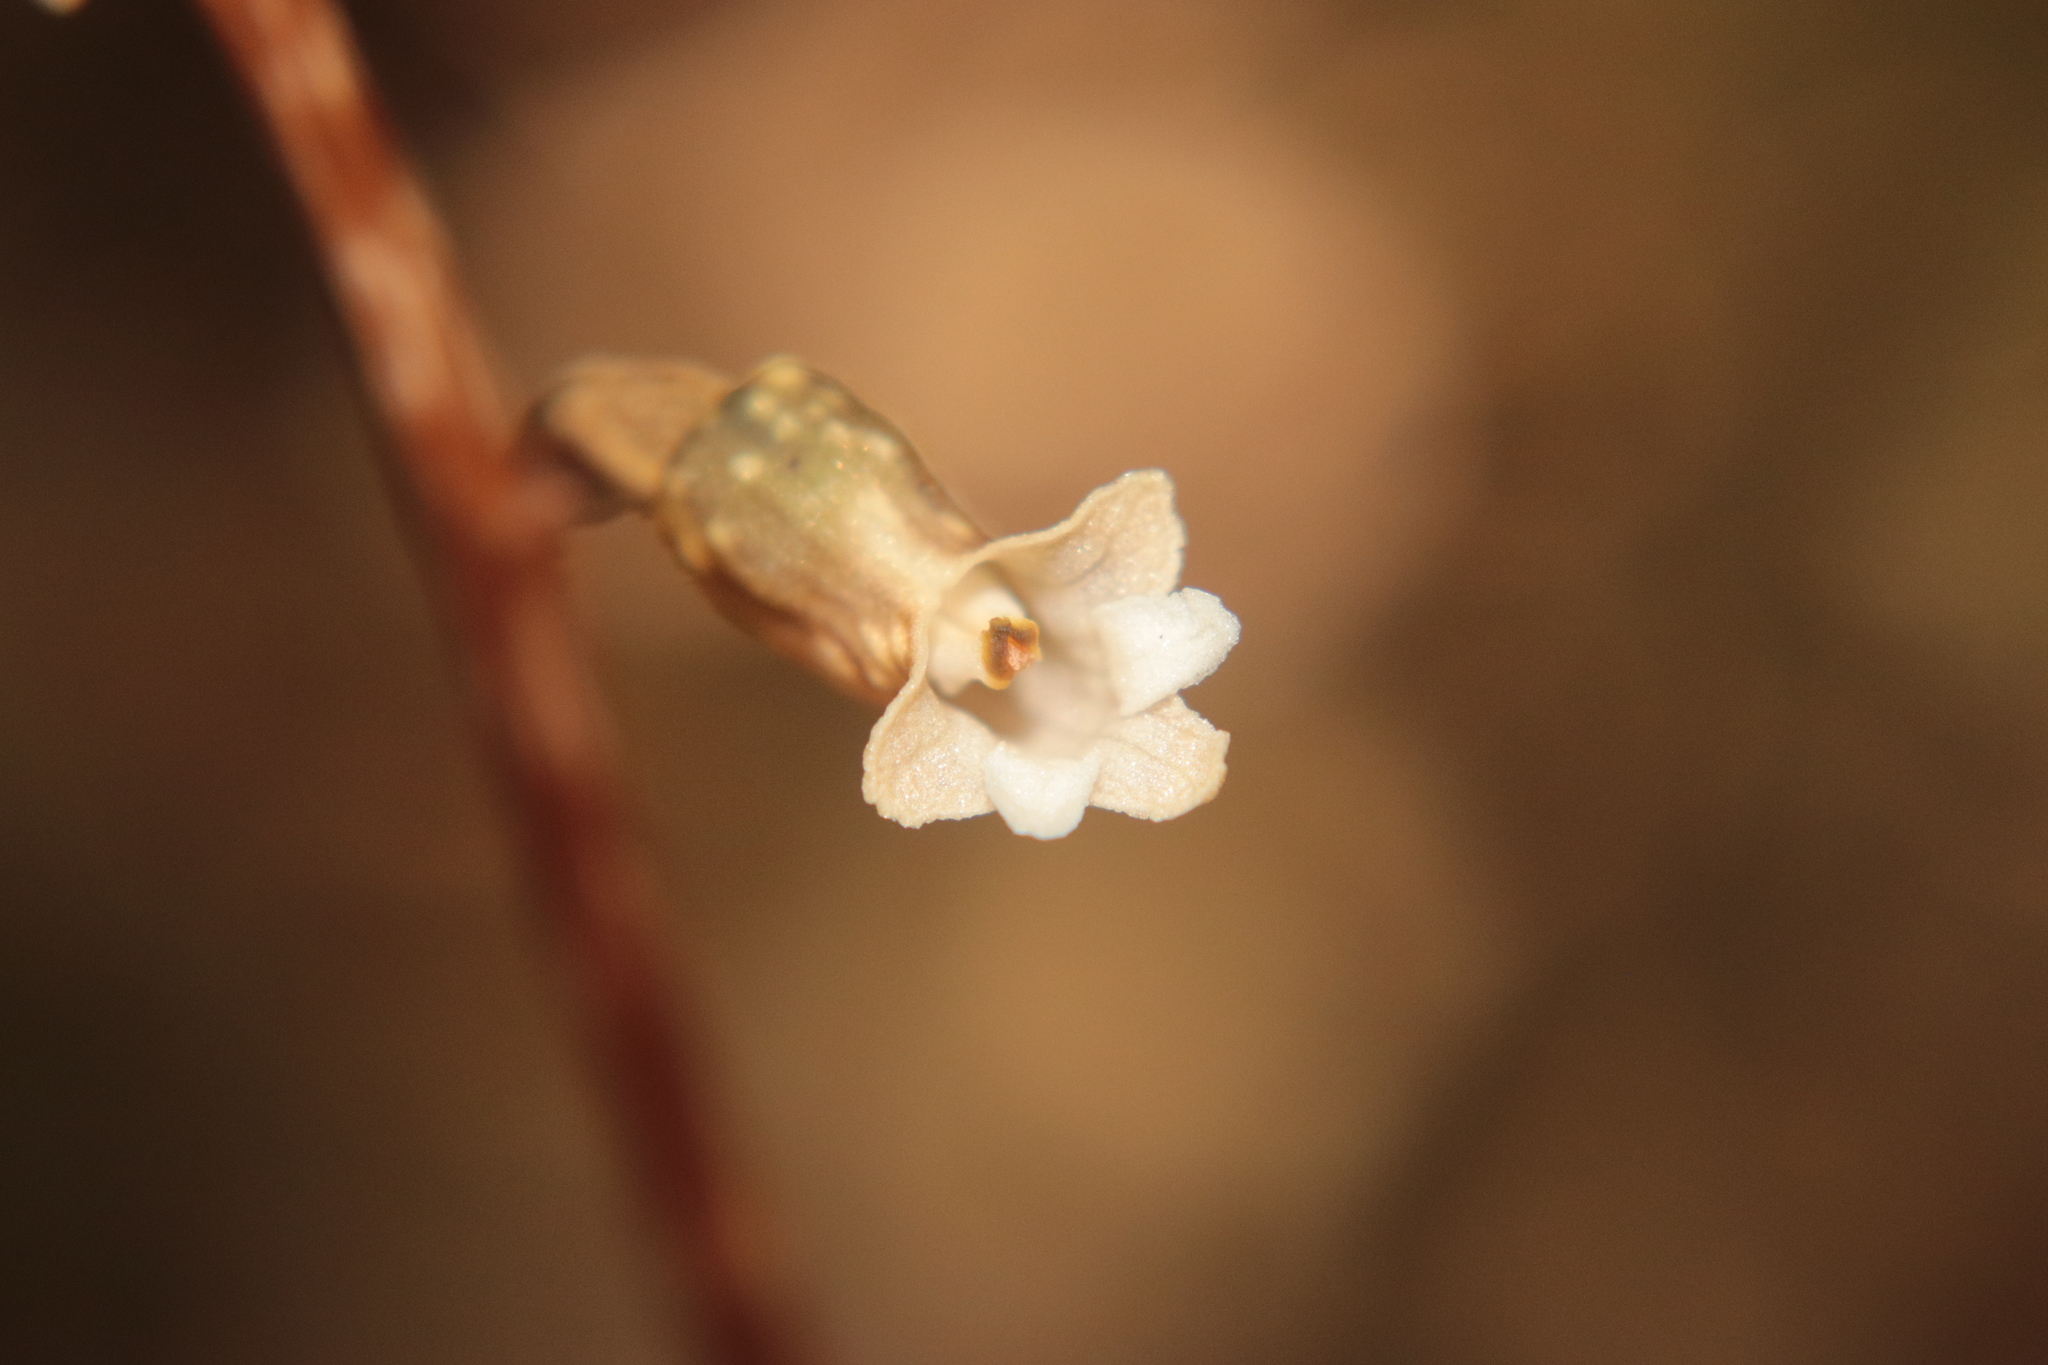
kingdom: Plantae
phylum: Tracheophyta
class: Liliopsida
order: Asparagales
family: Orchidaceae
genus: Gastrodia
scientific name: Gastrodia cunninghamii
